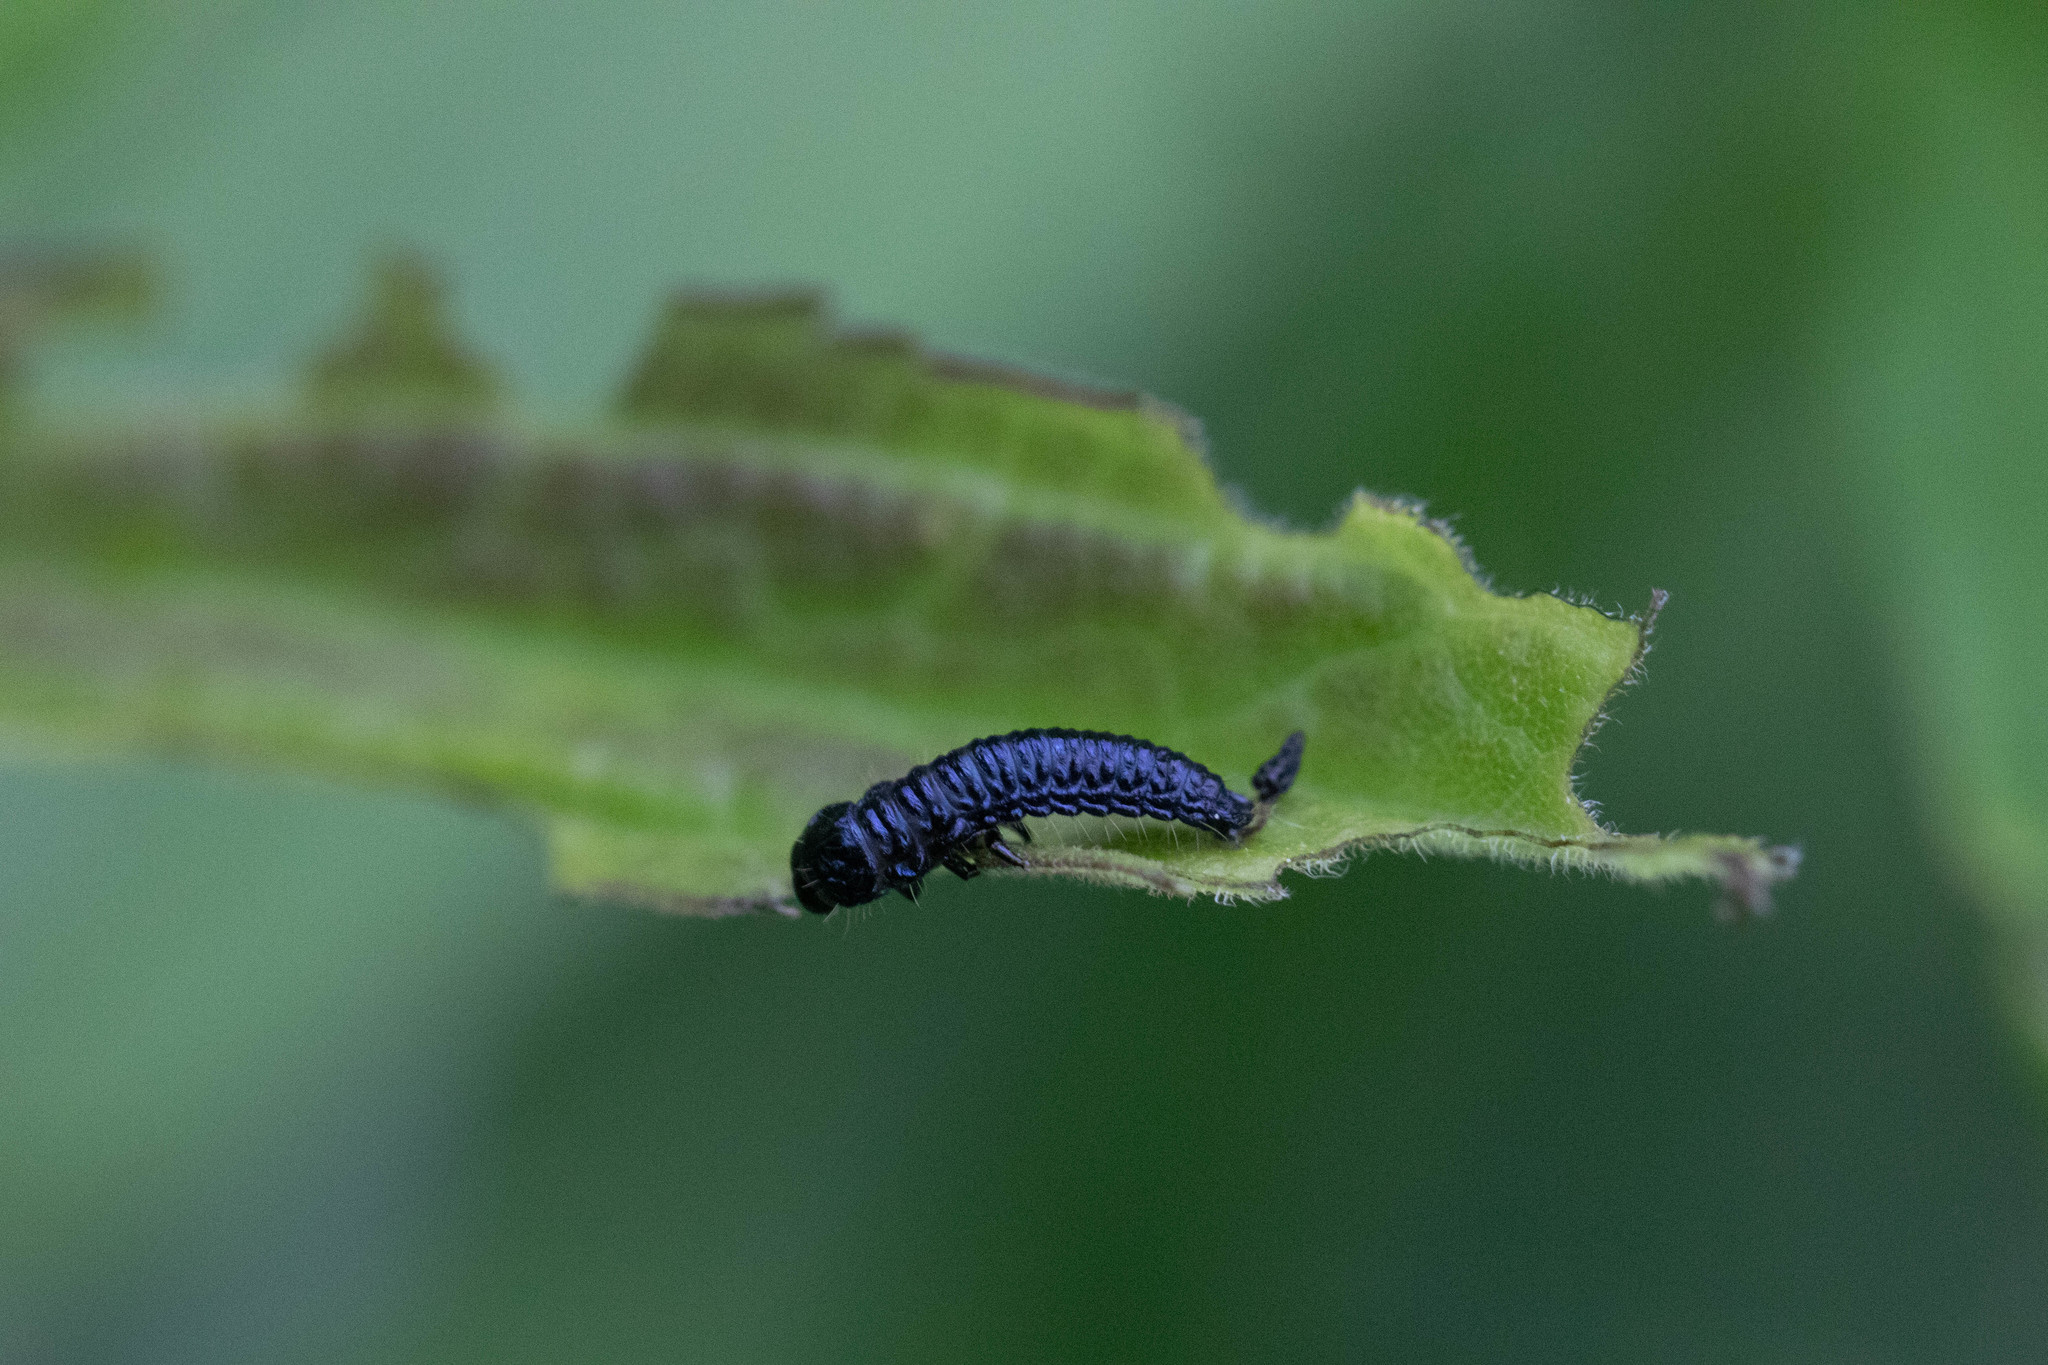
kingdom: Animalia
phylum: Arthropoda
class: Insecta
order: Coleoptera
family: Chrysomelidae
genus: Trirhabda
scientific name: Trirhabda canadensis
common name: Goldenrod leaf beetle
